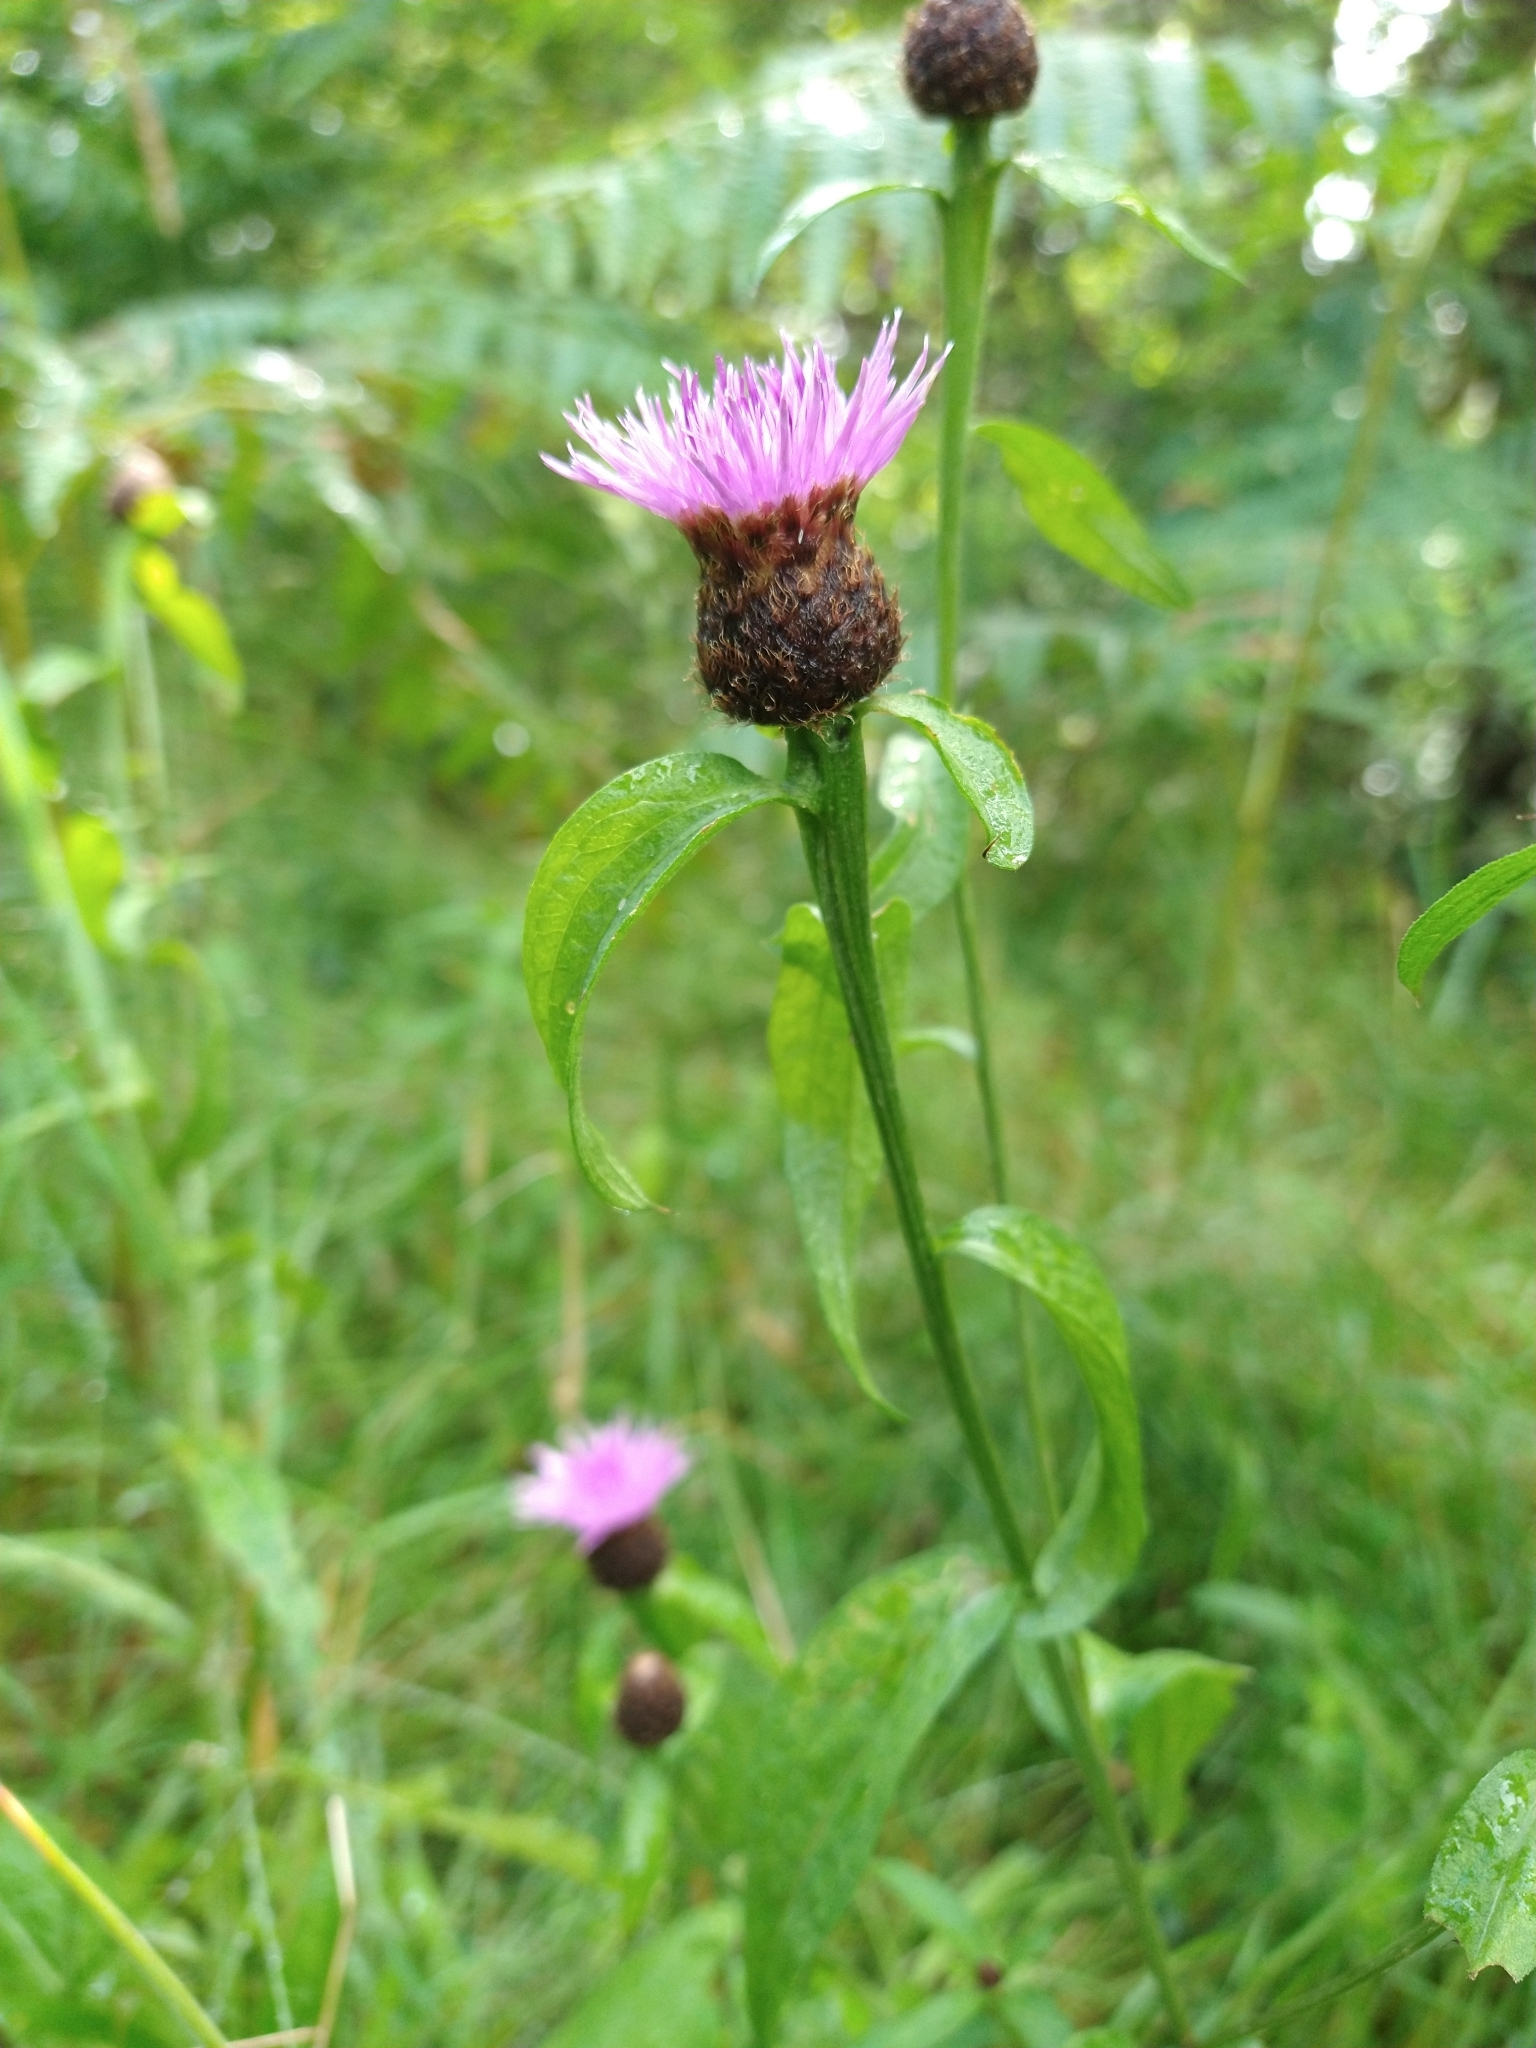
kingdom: Plantae
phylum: Tracheophyta
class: Magnoliopsida
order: Asterales
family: Asteraceae
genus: Centaurea
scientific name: Centaurea nigra
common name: Lesser knapweed
